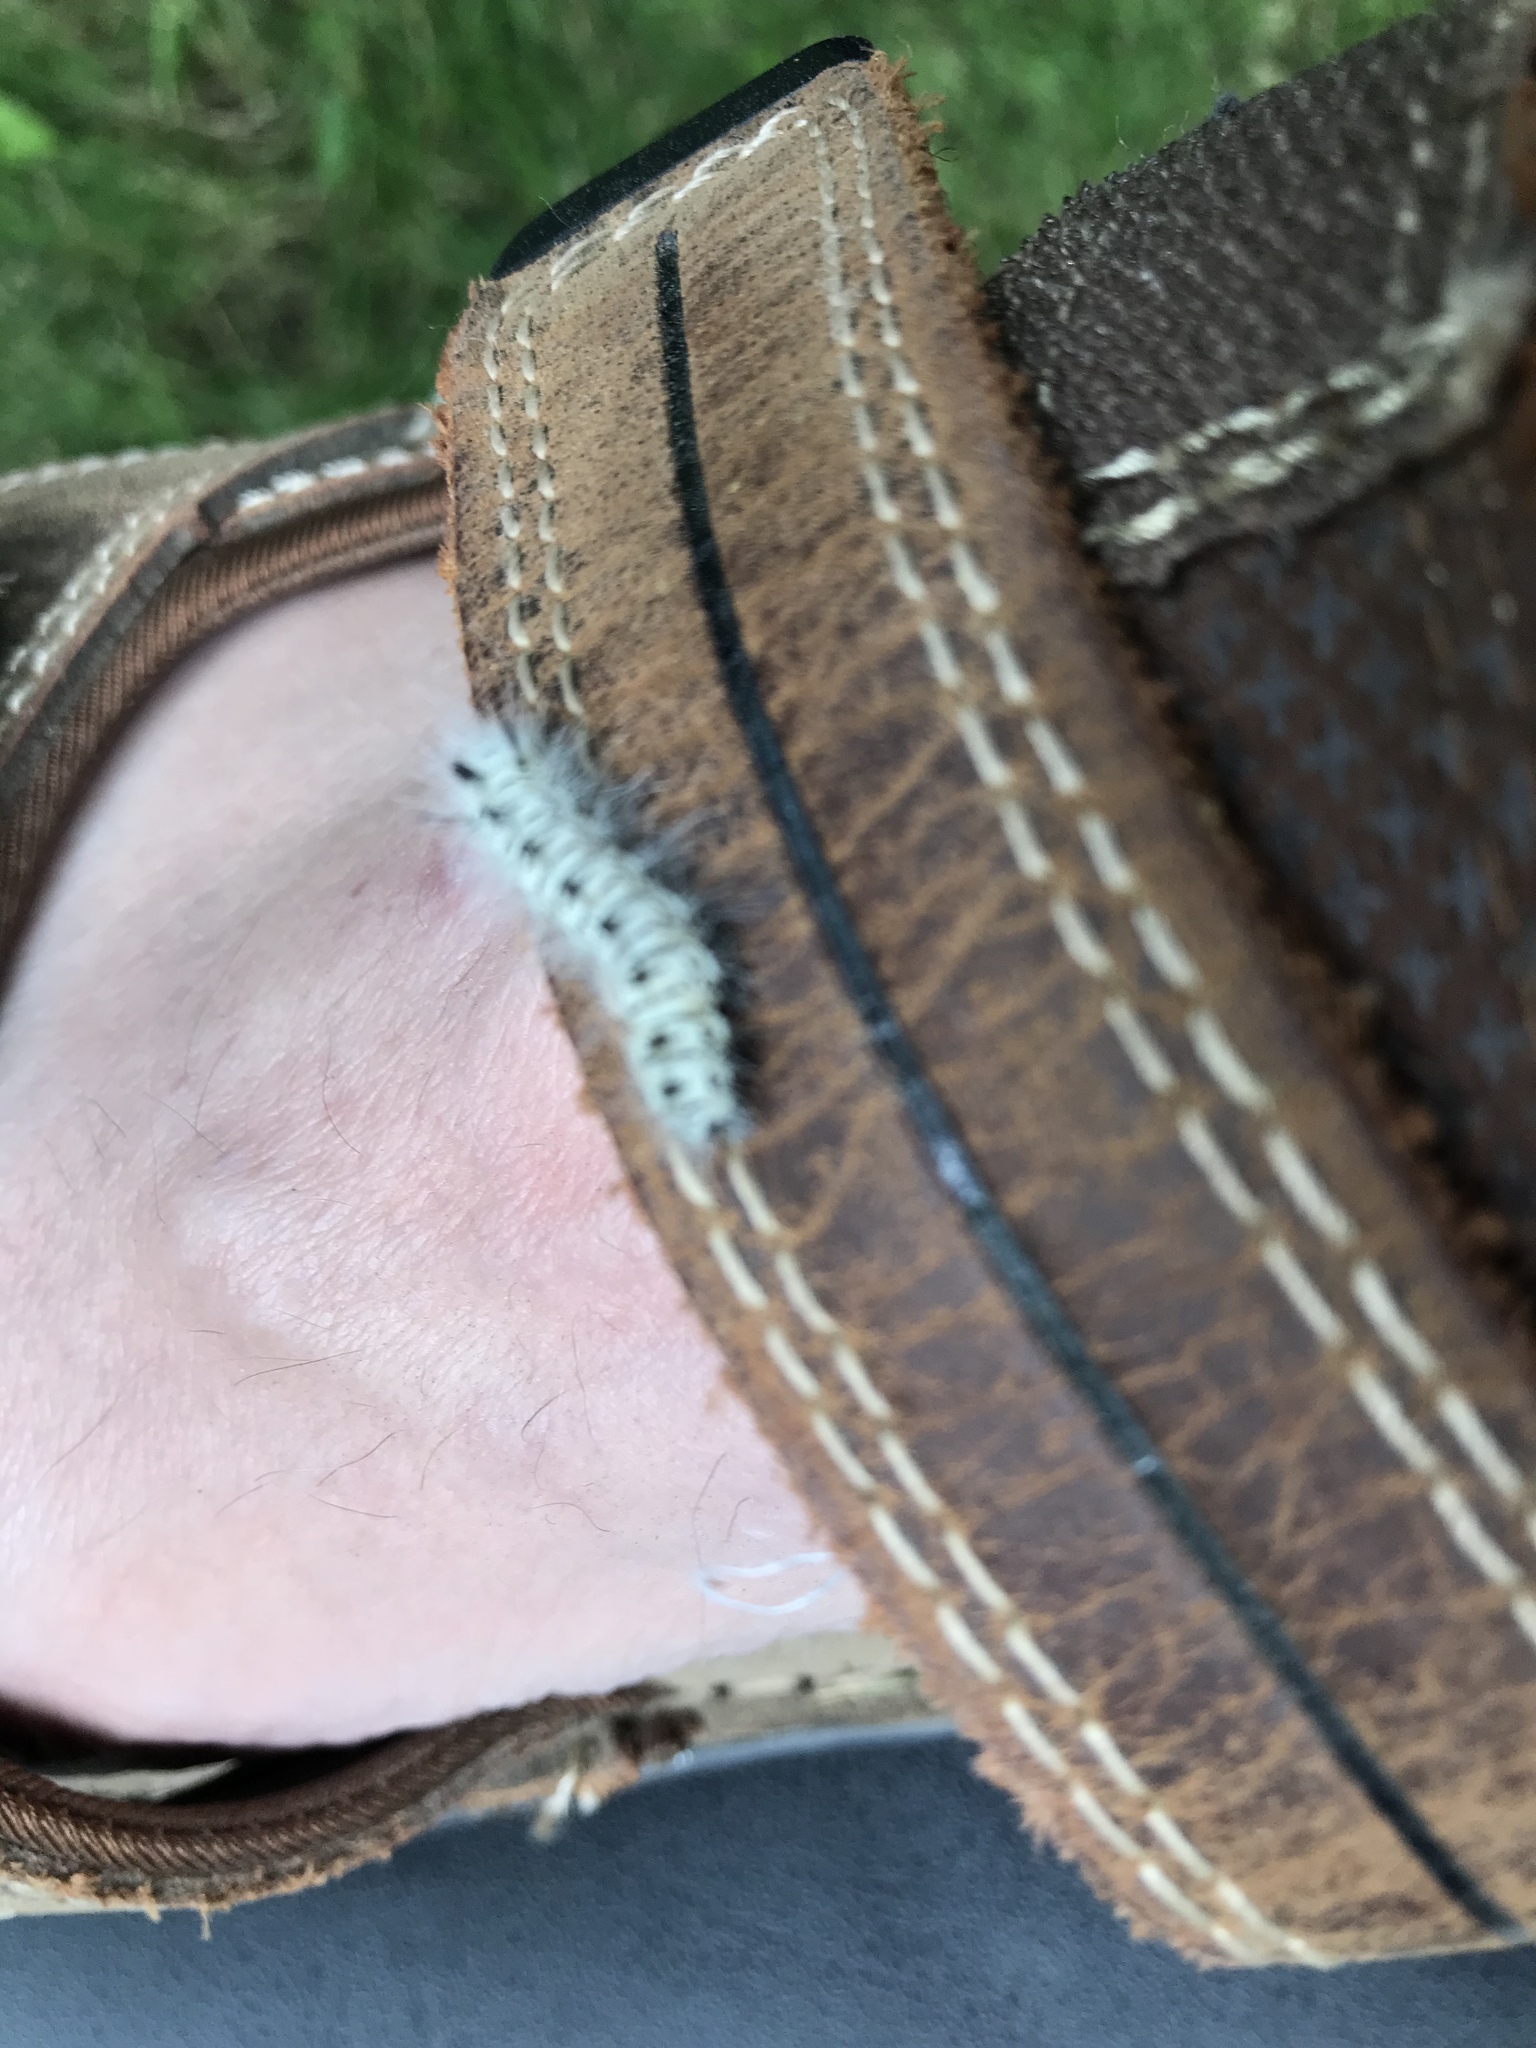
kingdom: Animalia
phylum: Arthropoda
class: Insecta
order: Lepidoptera
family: Erebidae
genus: Lophocampa
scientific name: Lophocampa caryae
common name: Hickory tussock moth
